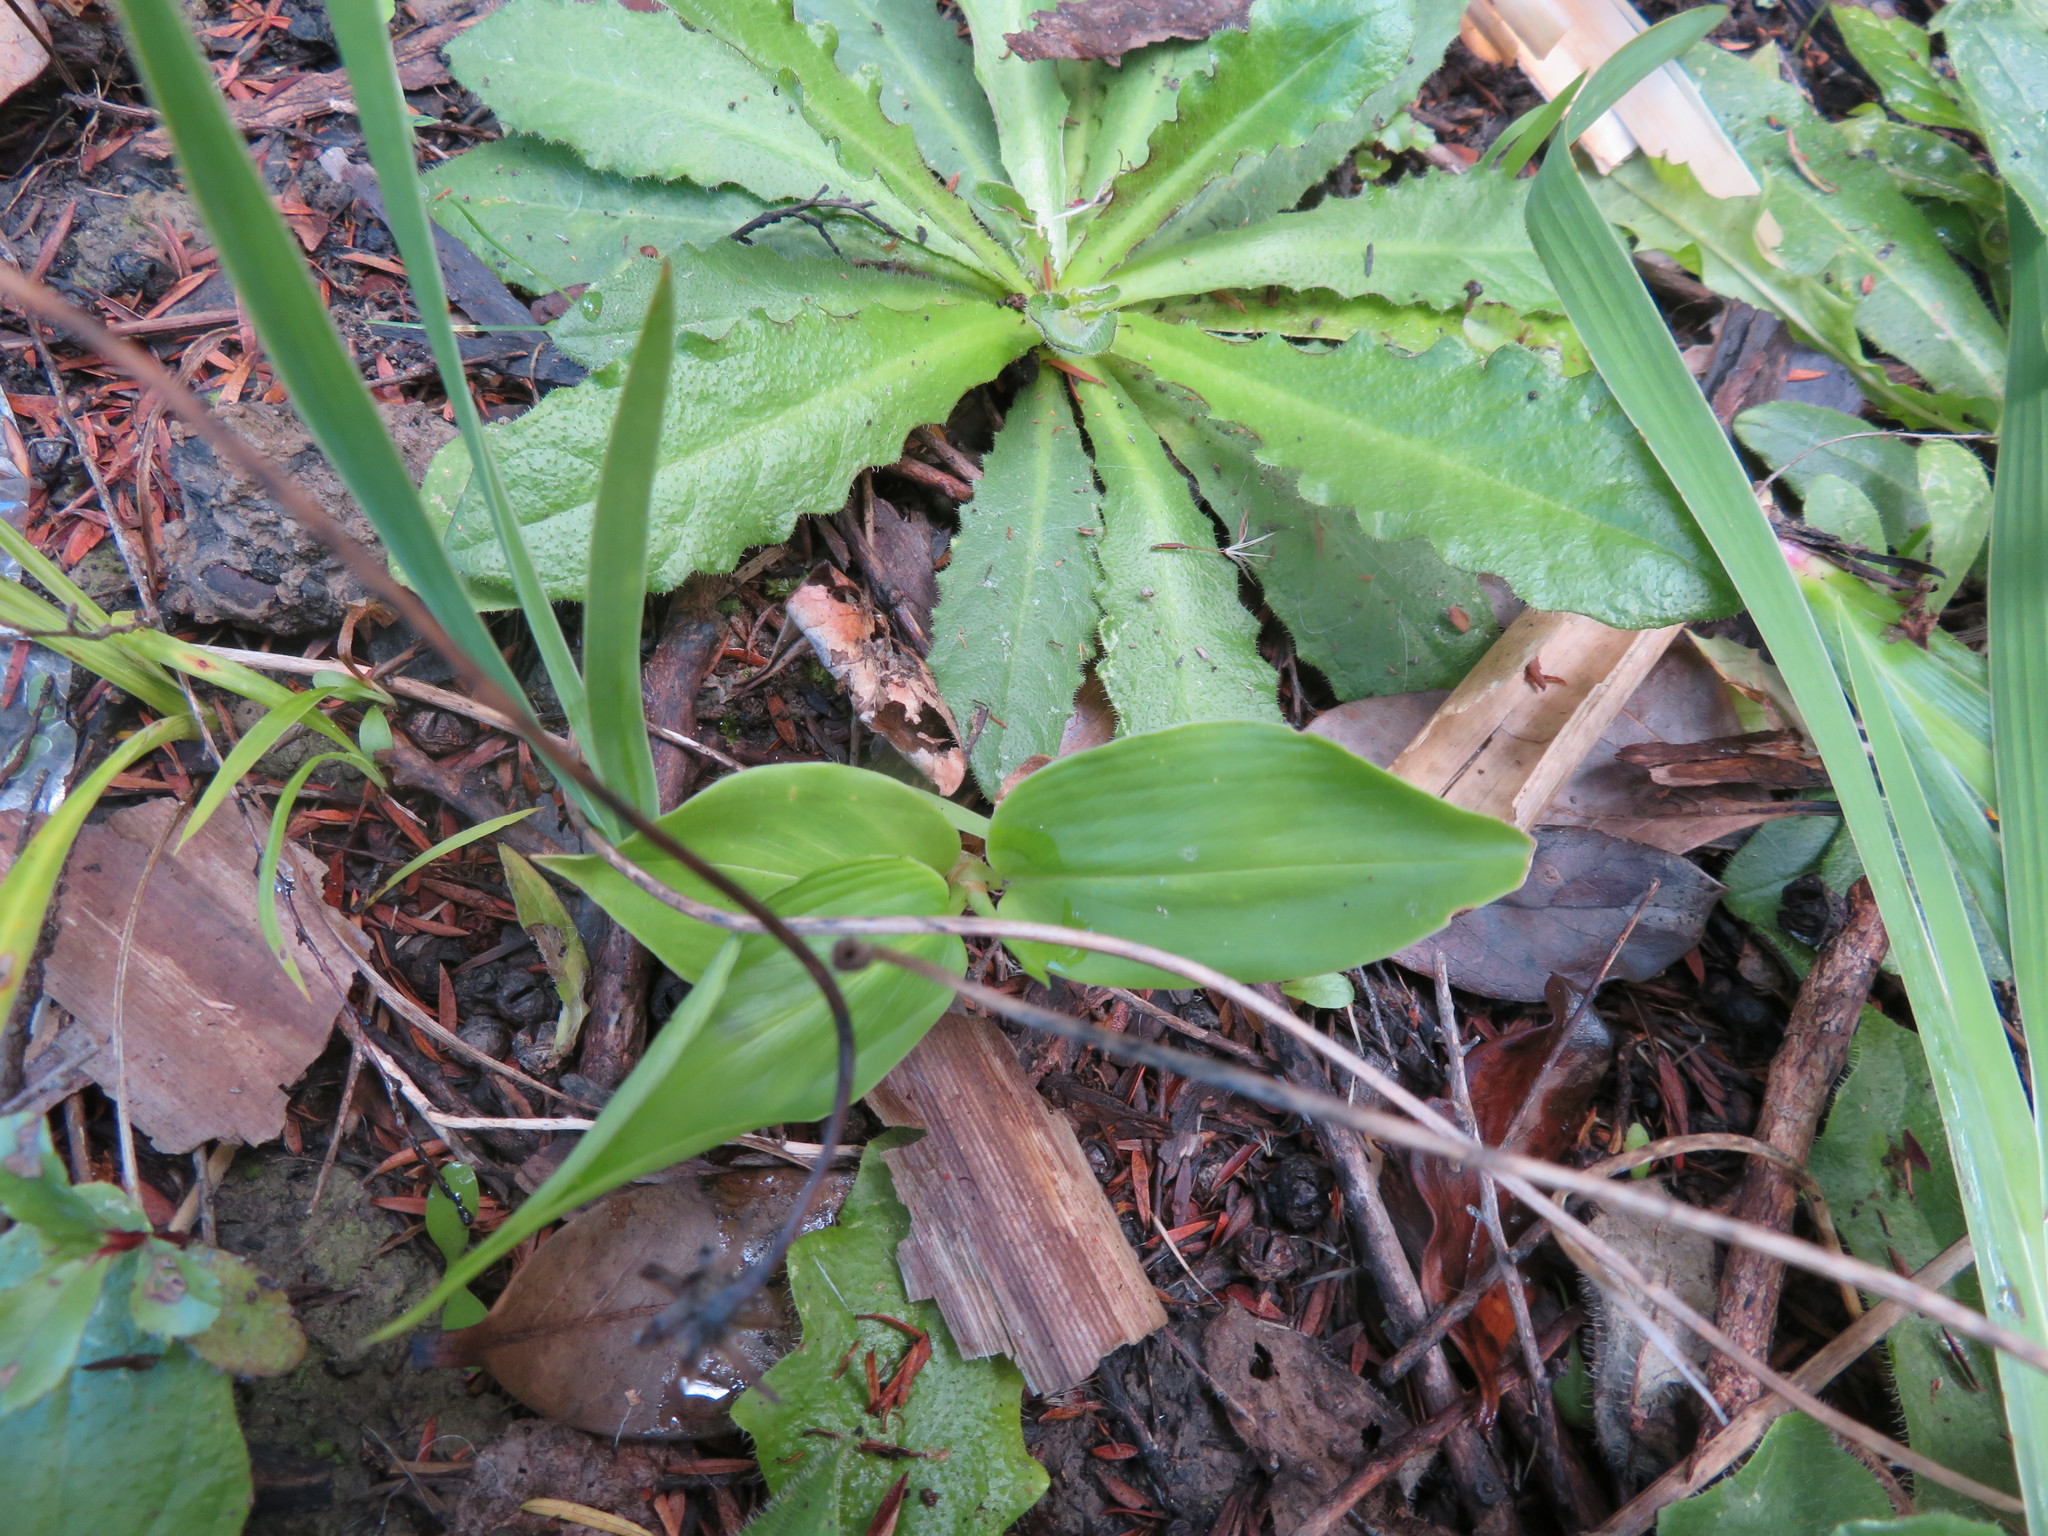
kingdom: Plantae
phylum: Tracheophyta
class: Liliopsida
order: Zingiberales
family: Zingiberaceae
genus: Hedychium
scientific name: Hedychium gardnerianum
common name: Himalayan ginger
